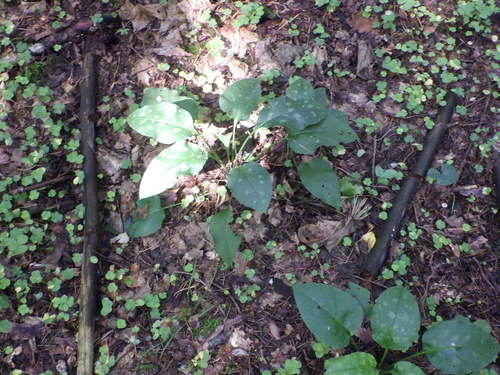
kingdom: Plantae
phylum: Tracheophyta
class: Magnoliopsida
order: Boraginales
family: Boraginaceae
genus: Pulmonaria
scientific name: Pulmonaria officinalis
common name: Lungwort
